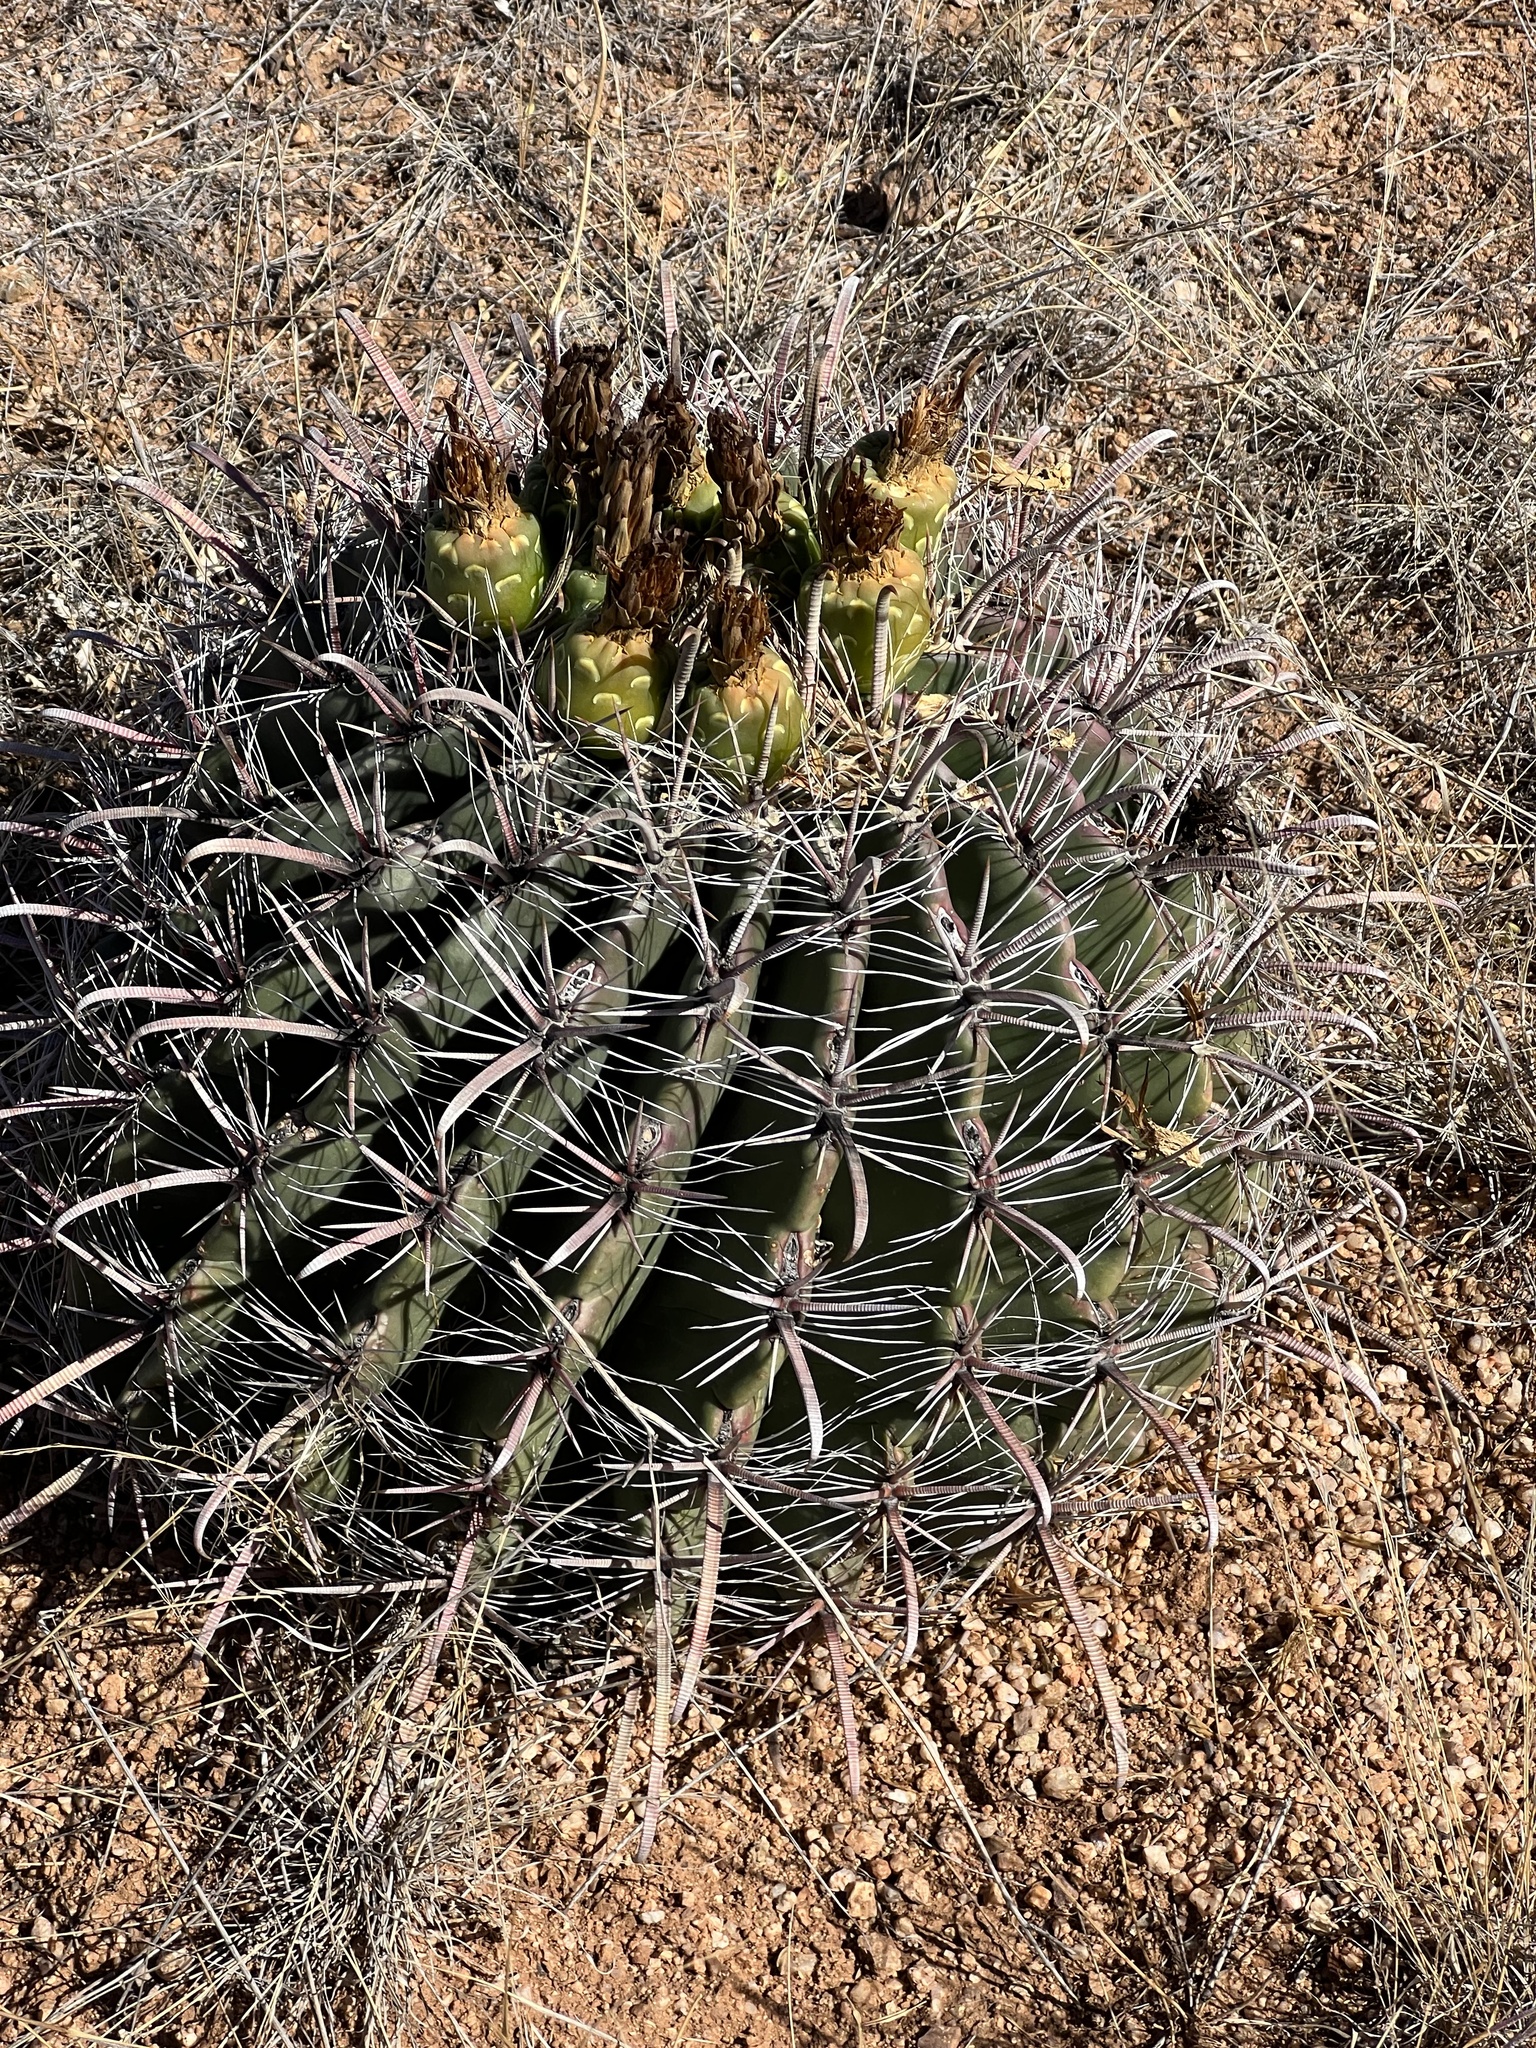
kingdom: Plantae
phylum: Tracheophyta
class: Magnoliopsida
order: Caryophyllales
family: Cactaceae
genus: Ferocactus
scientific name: Ferocactus wislizeni
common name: Candy barrel cactus
